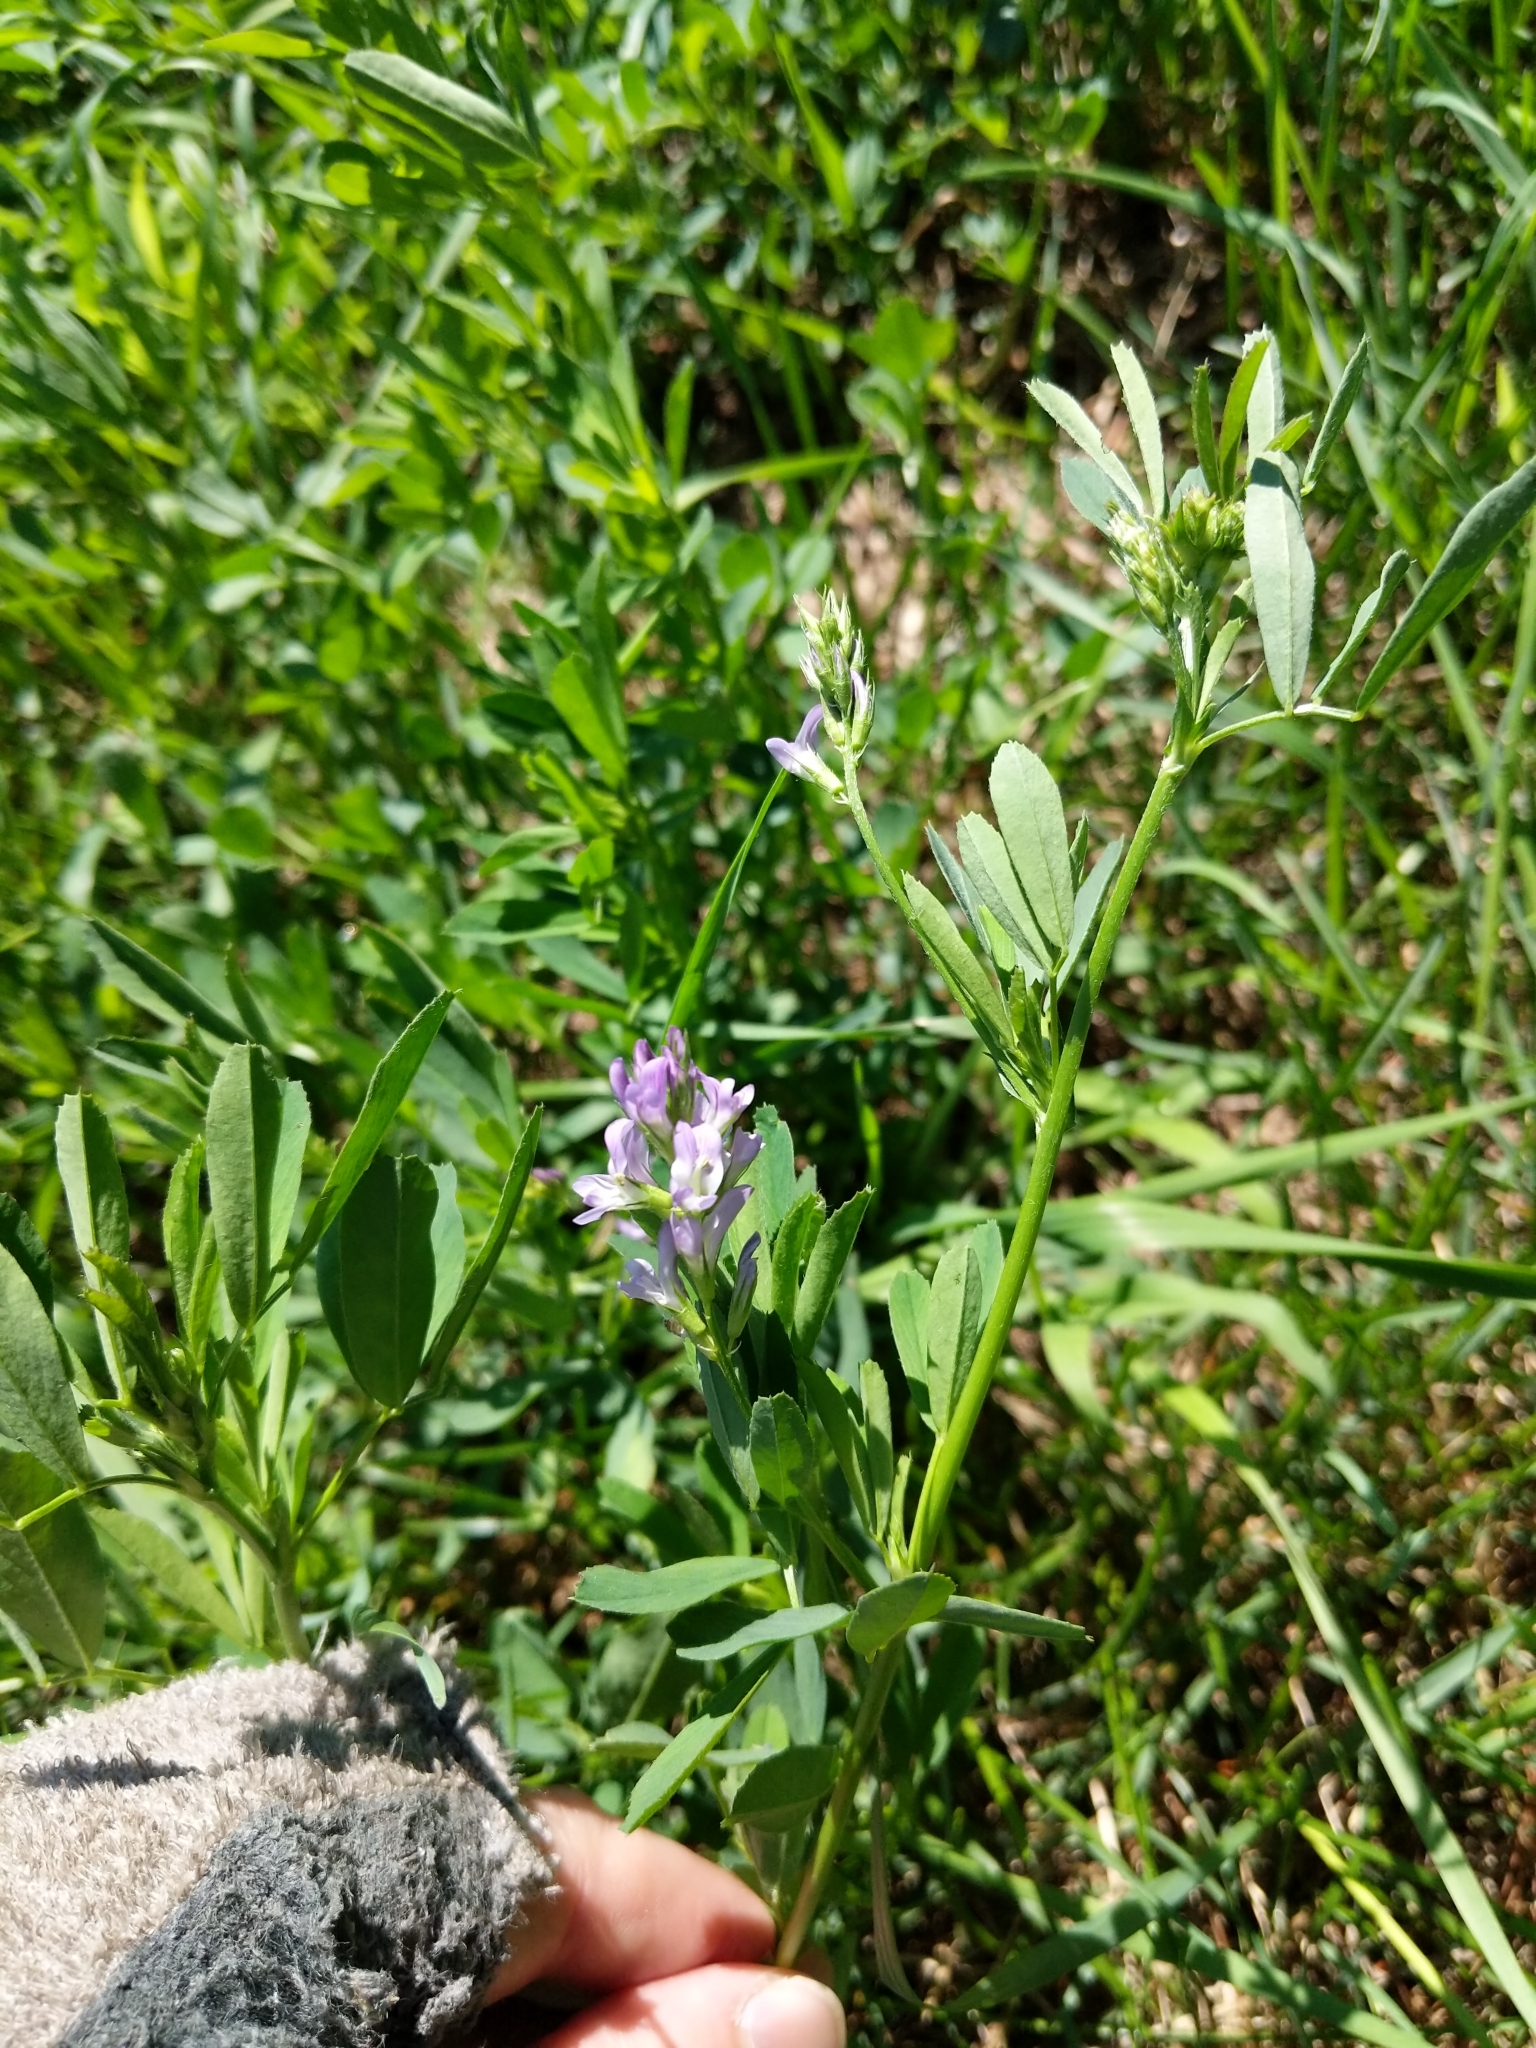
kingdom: Plantae
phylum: Tracheophyta
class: Magnoliopsida
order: Fabales
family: Fabaceae
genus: Medicago
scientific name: Medicago sativa
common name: Alfalfa
